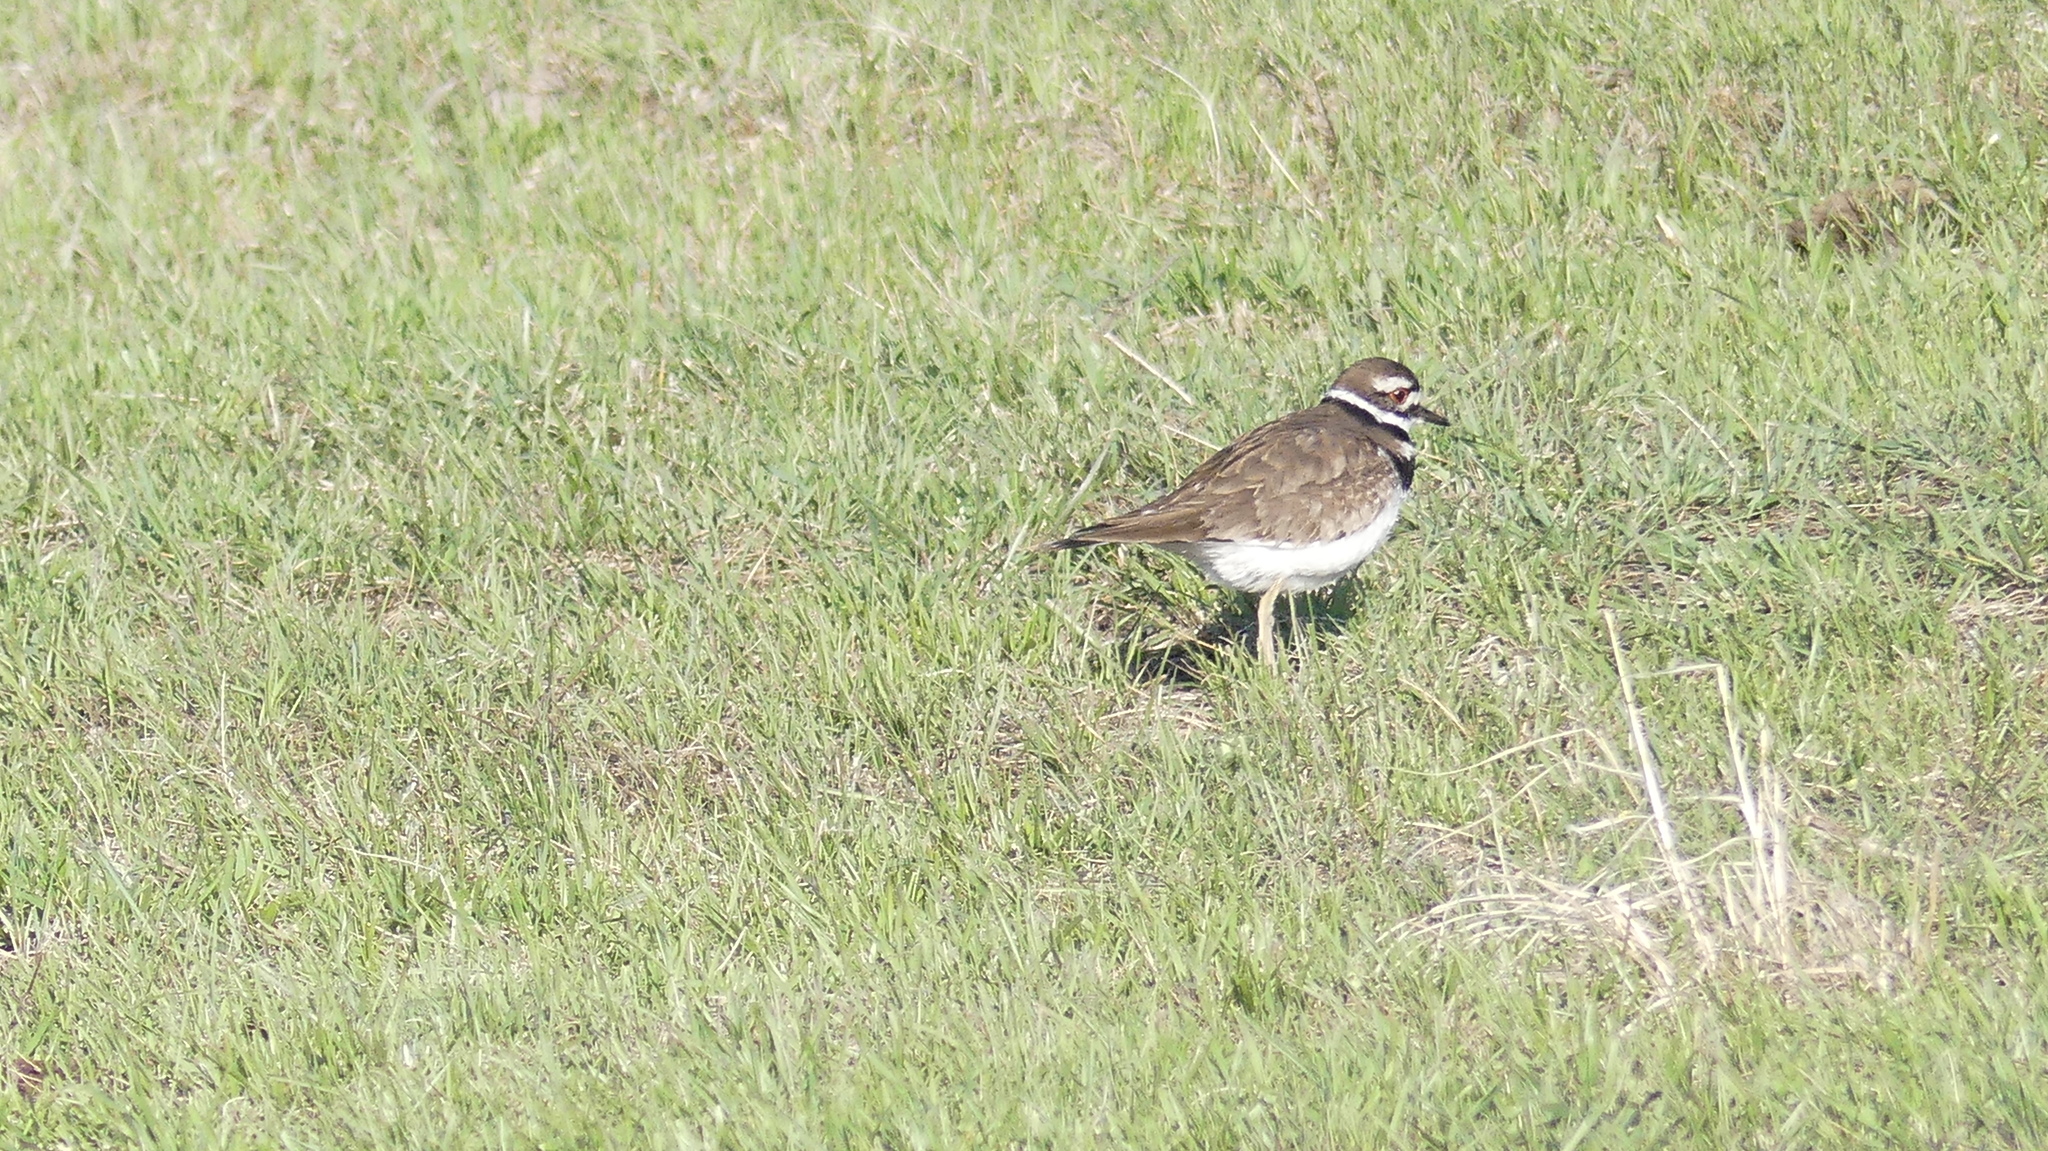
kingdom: Animalia
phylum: Chordata
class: Aves
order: Charadriiformes
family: Charadriidae
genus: Charadrius
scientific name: Charadrius vociferus
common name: Killdeer
